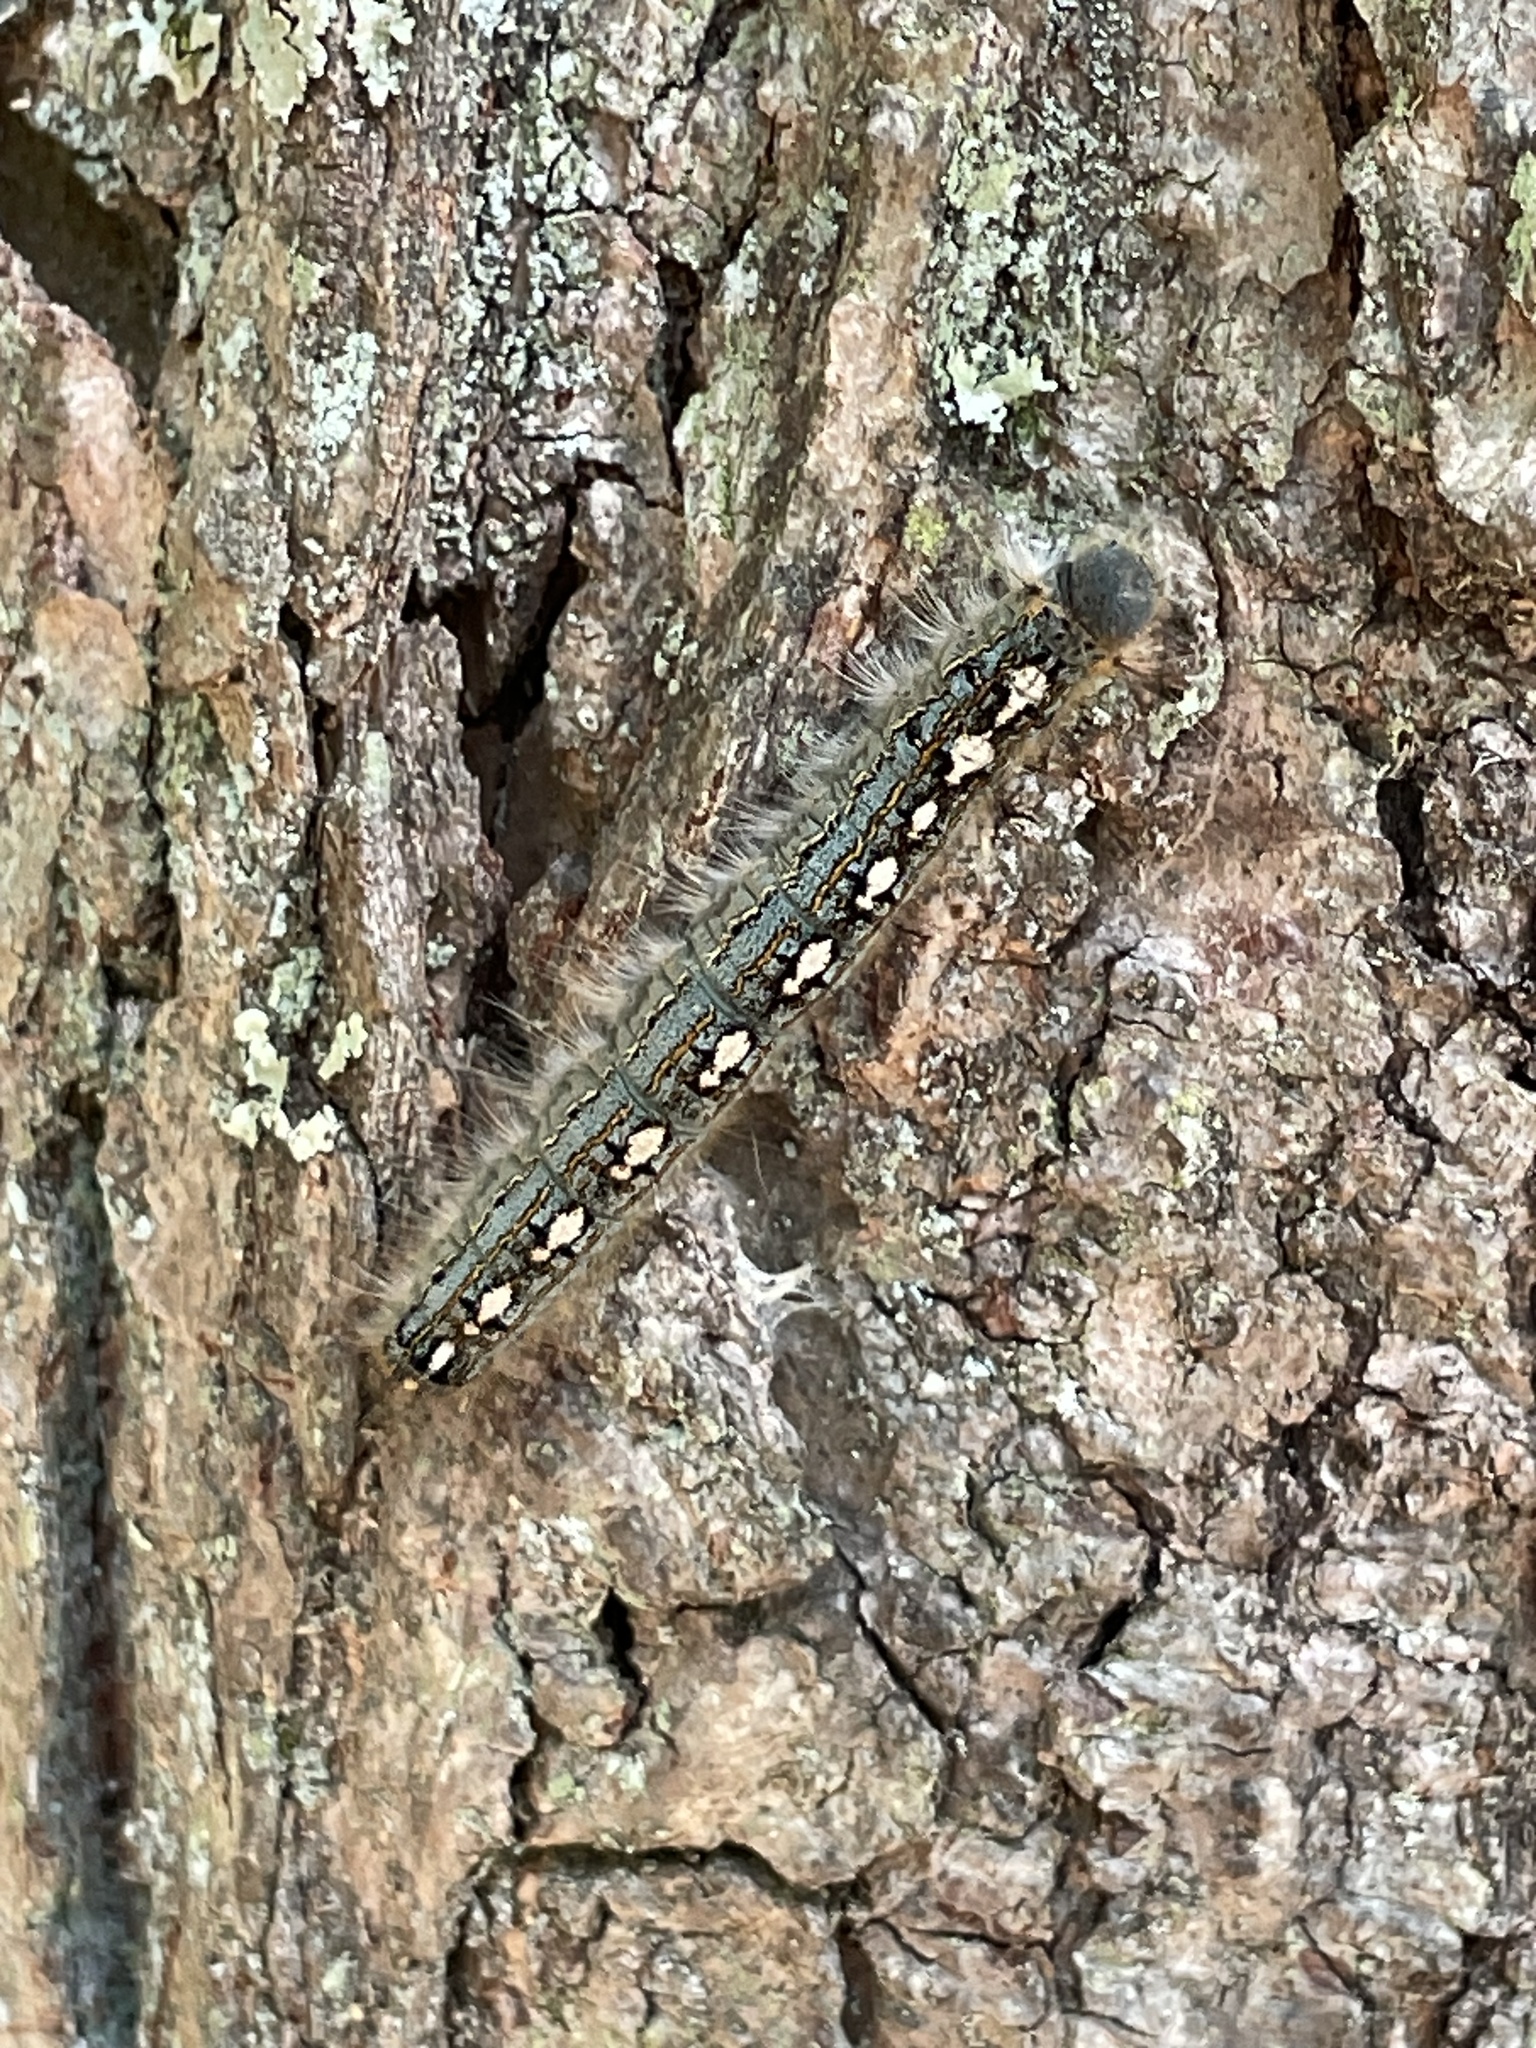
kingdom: Animalia
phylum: Arthropoda
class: Insecta
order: Lepidoptera
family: Lasiocampidae
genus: Malacosoma
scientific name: Malacosoma disstria
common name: Forest tent caterpillar
